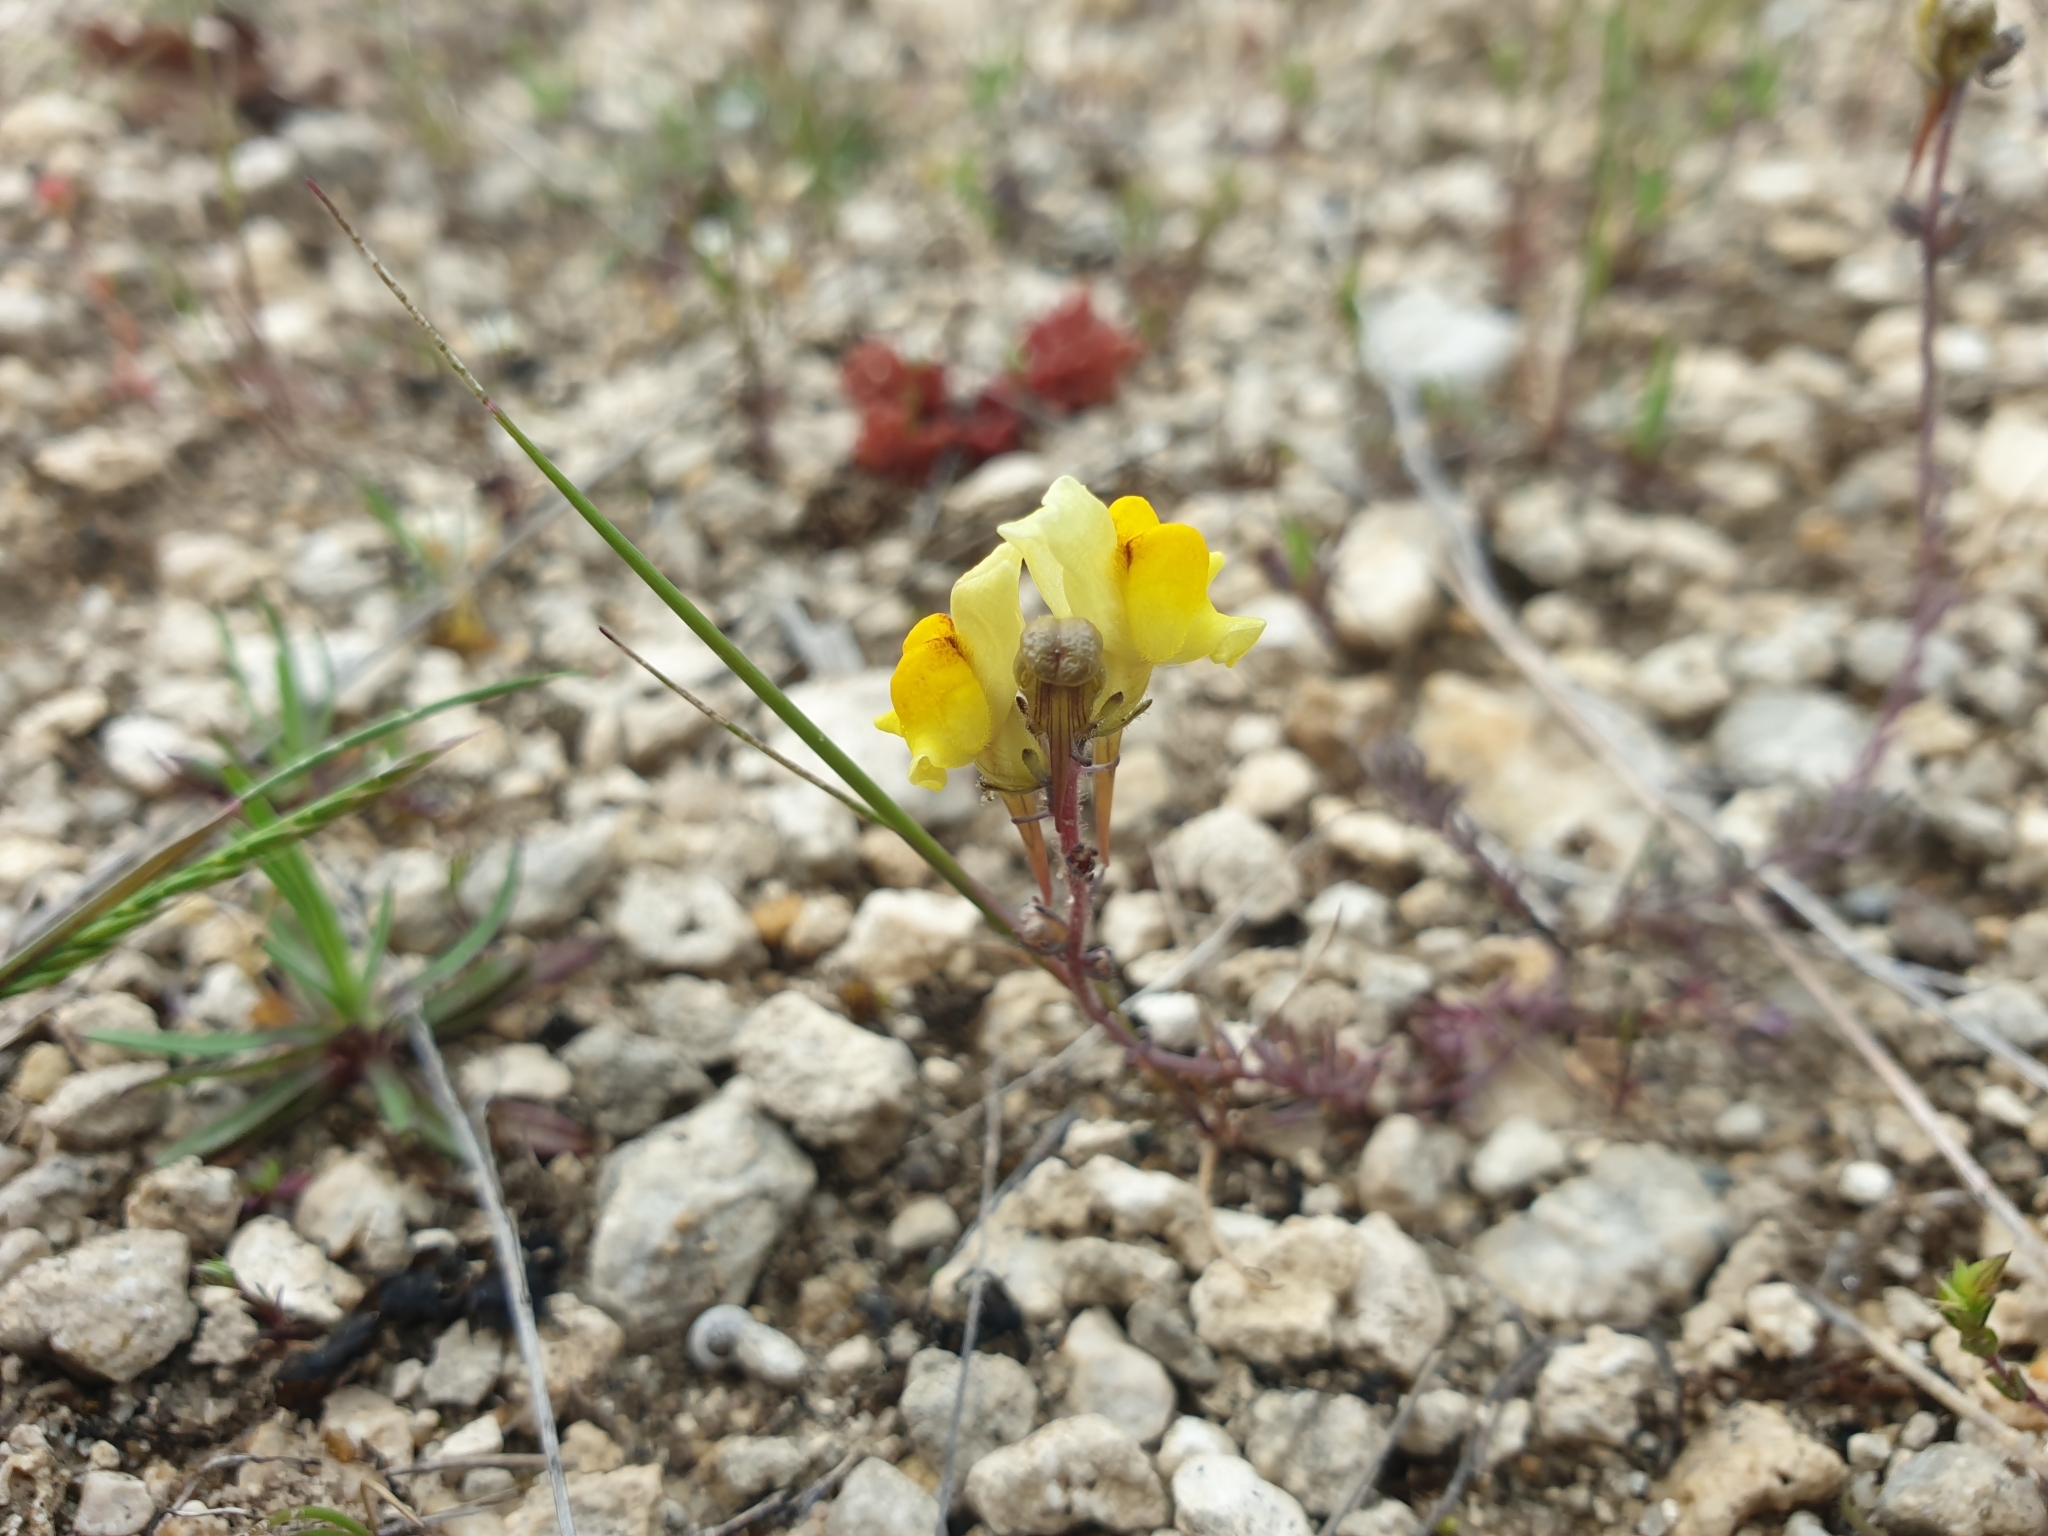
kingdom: Plantae
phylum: Tracheophyta
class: Magnoliopsida
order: Lamiales
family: Plantaginaceae
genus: Linaria
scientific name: Linaria supina
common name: Prostrate toadflax
